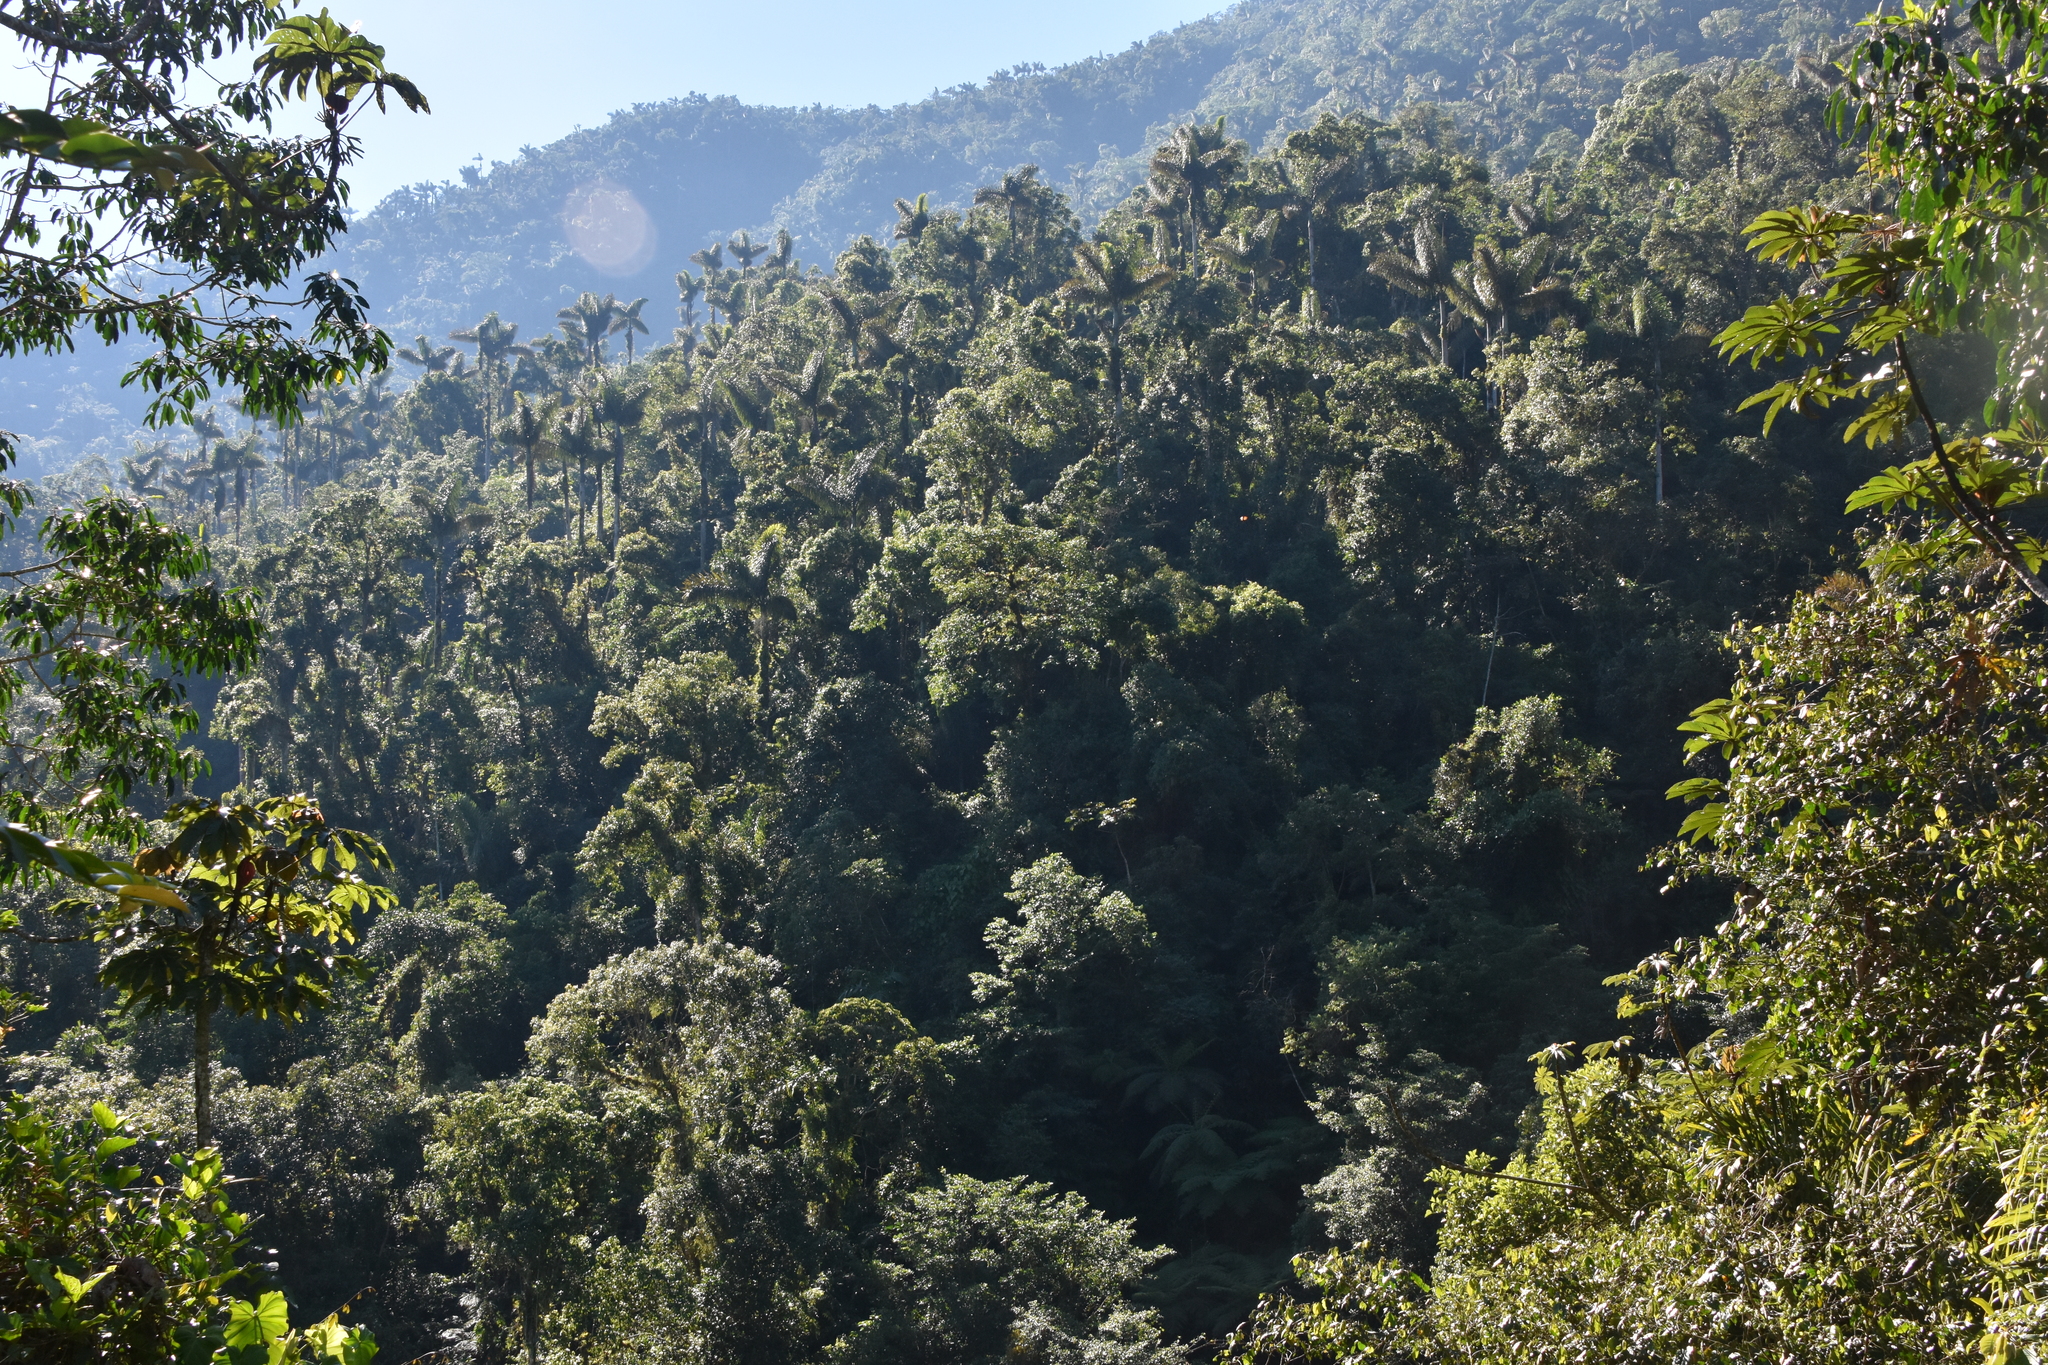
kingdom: Plantae
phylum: Tracheophyta
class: Liliopsida
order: Arecales
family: Arecaceae
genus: Dictyocaryum
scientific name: Dictyocaryum lamarckianum
